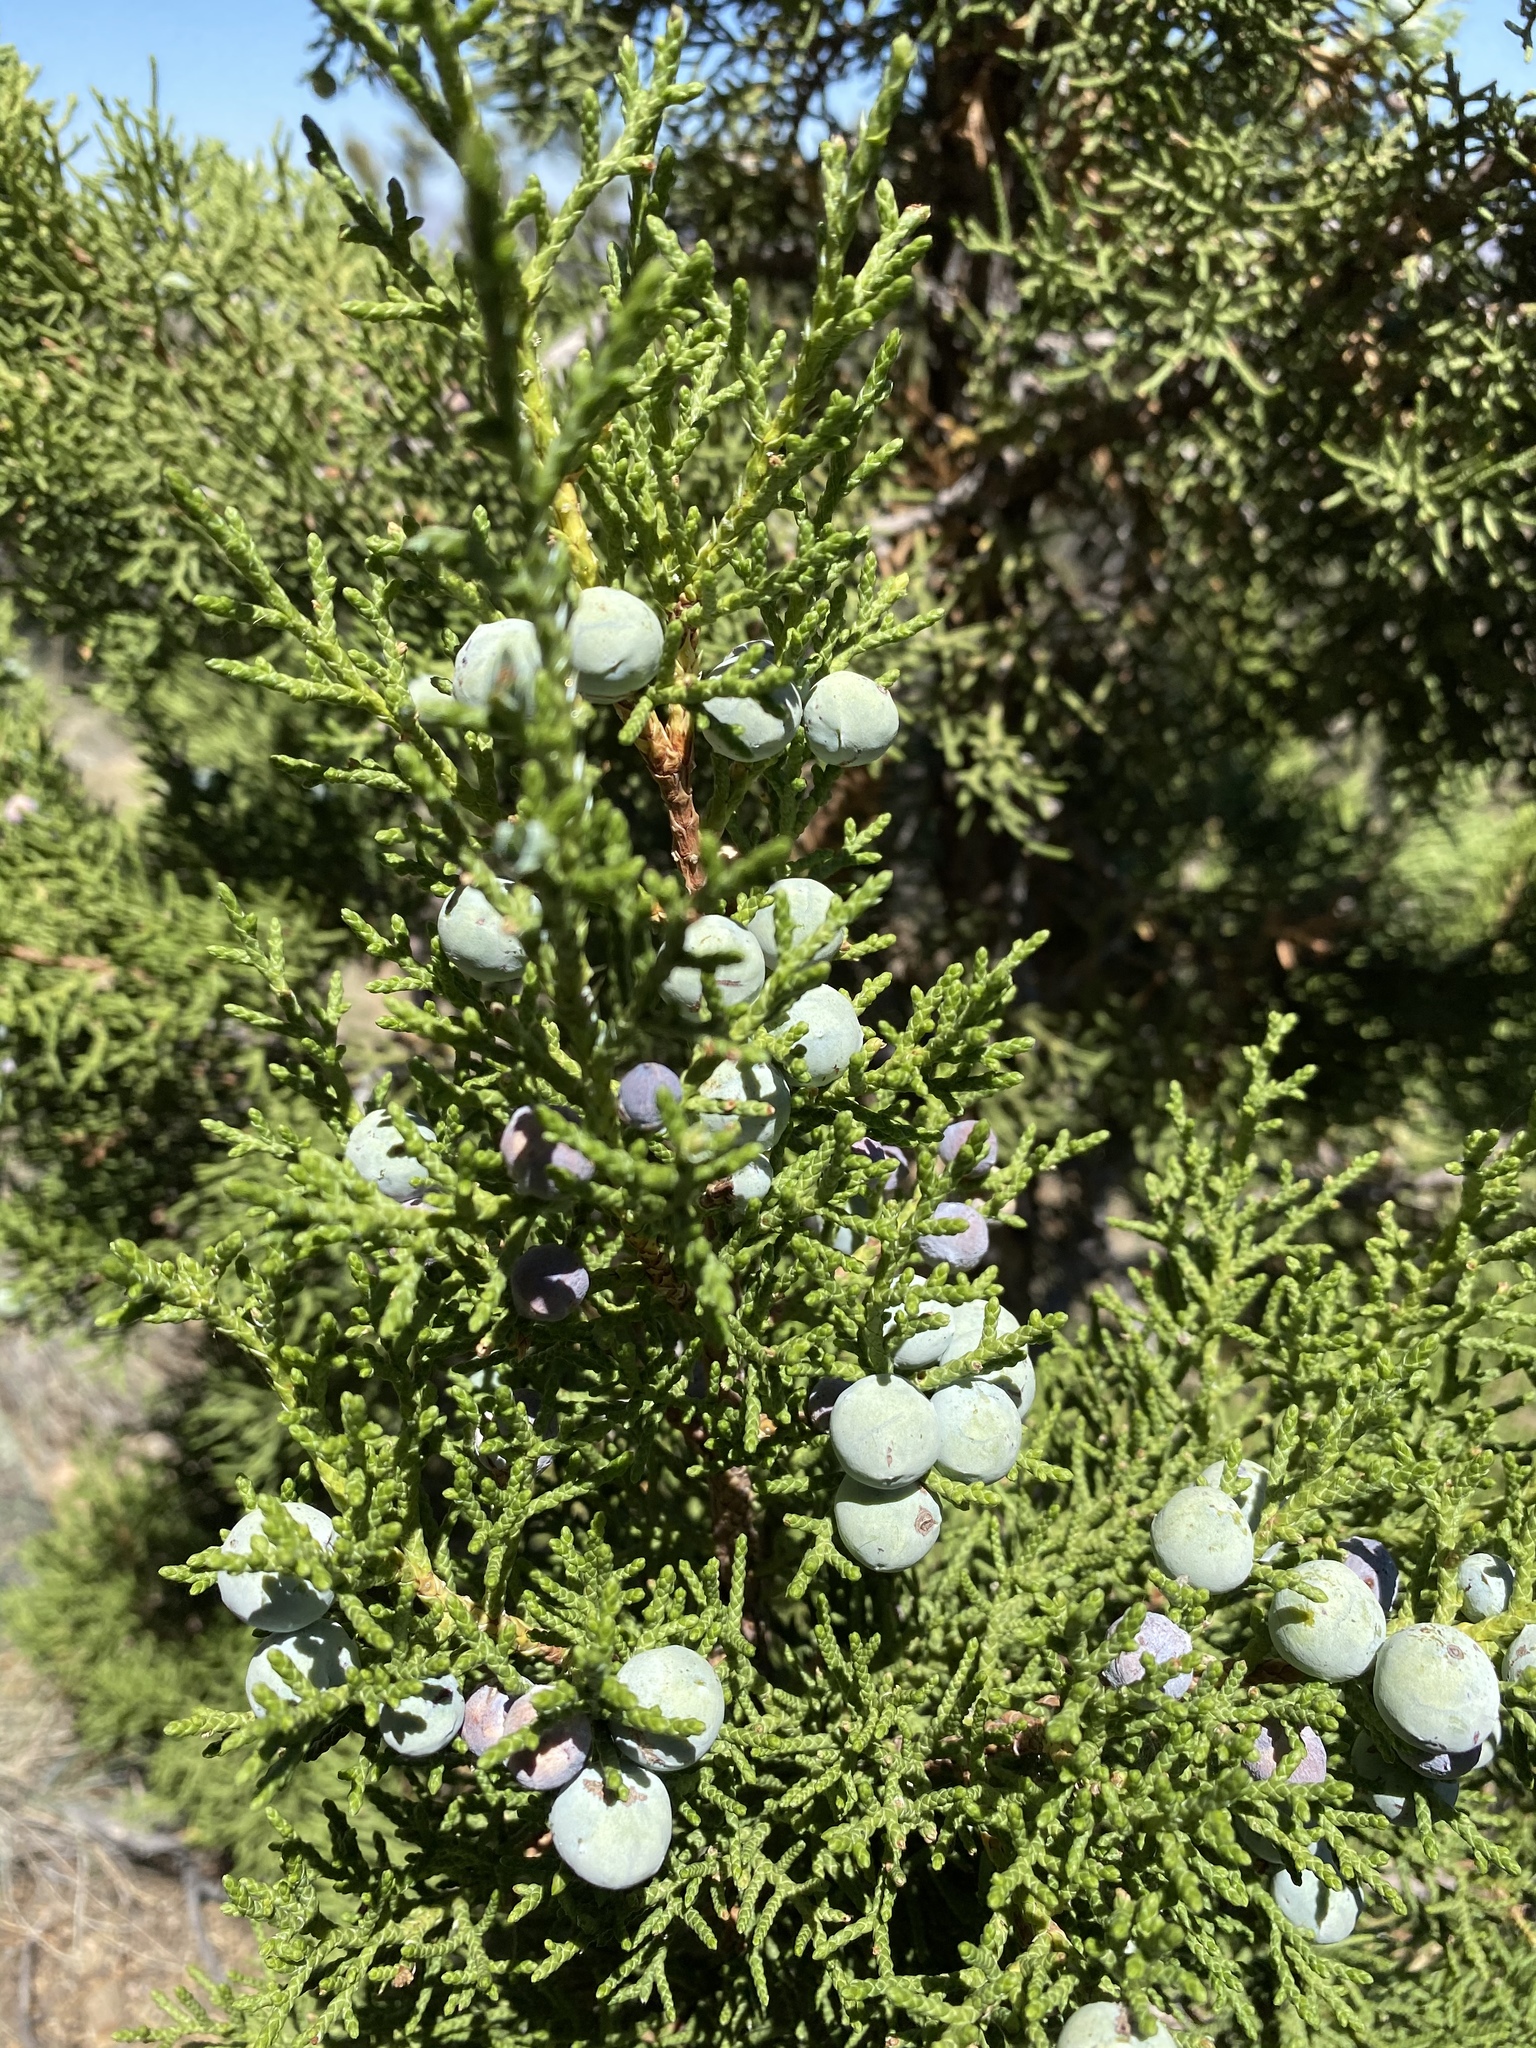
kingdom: Plantae
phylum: Tracheophyta
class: Pinopsida
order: Pinales
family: Cupressaceae
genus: Juniperus
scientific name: Juniperus osteosperma
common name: Utah juniper
